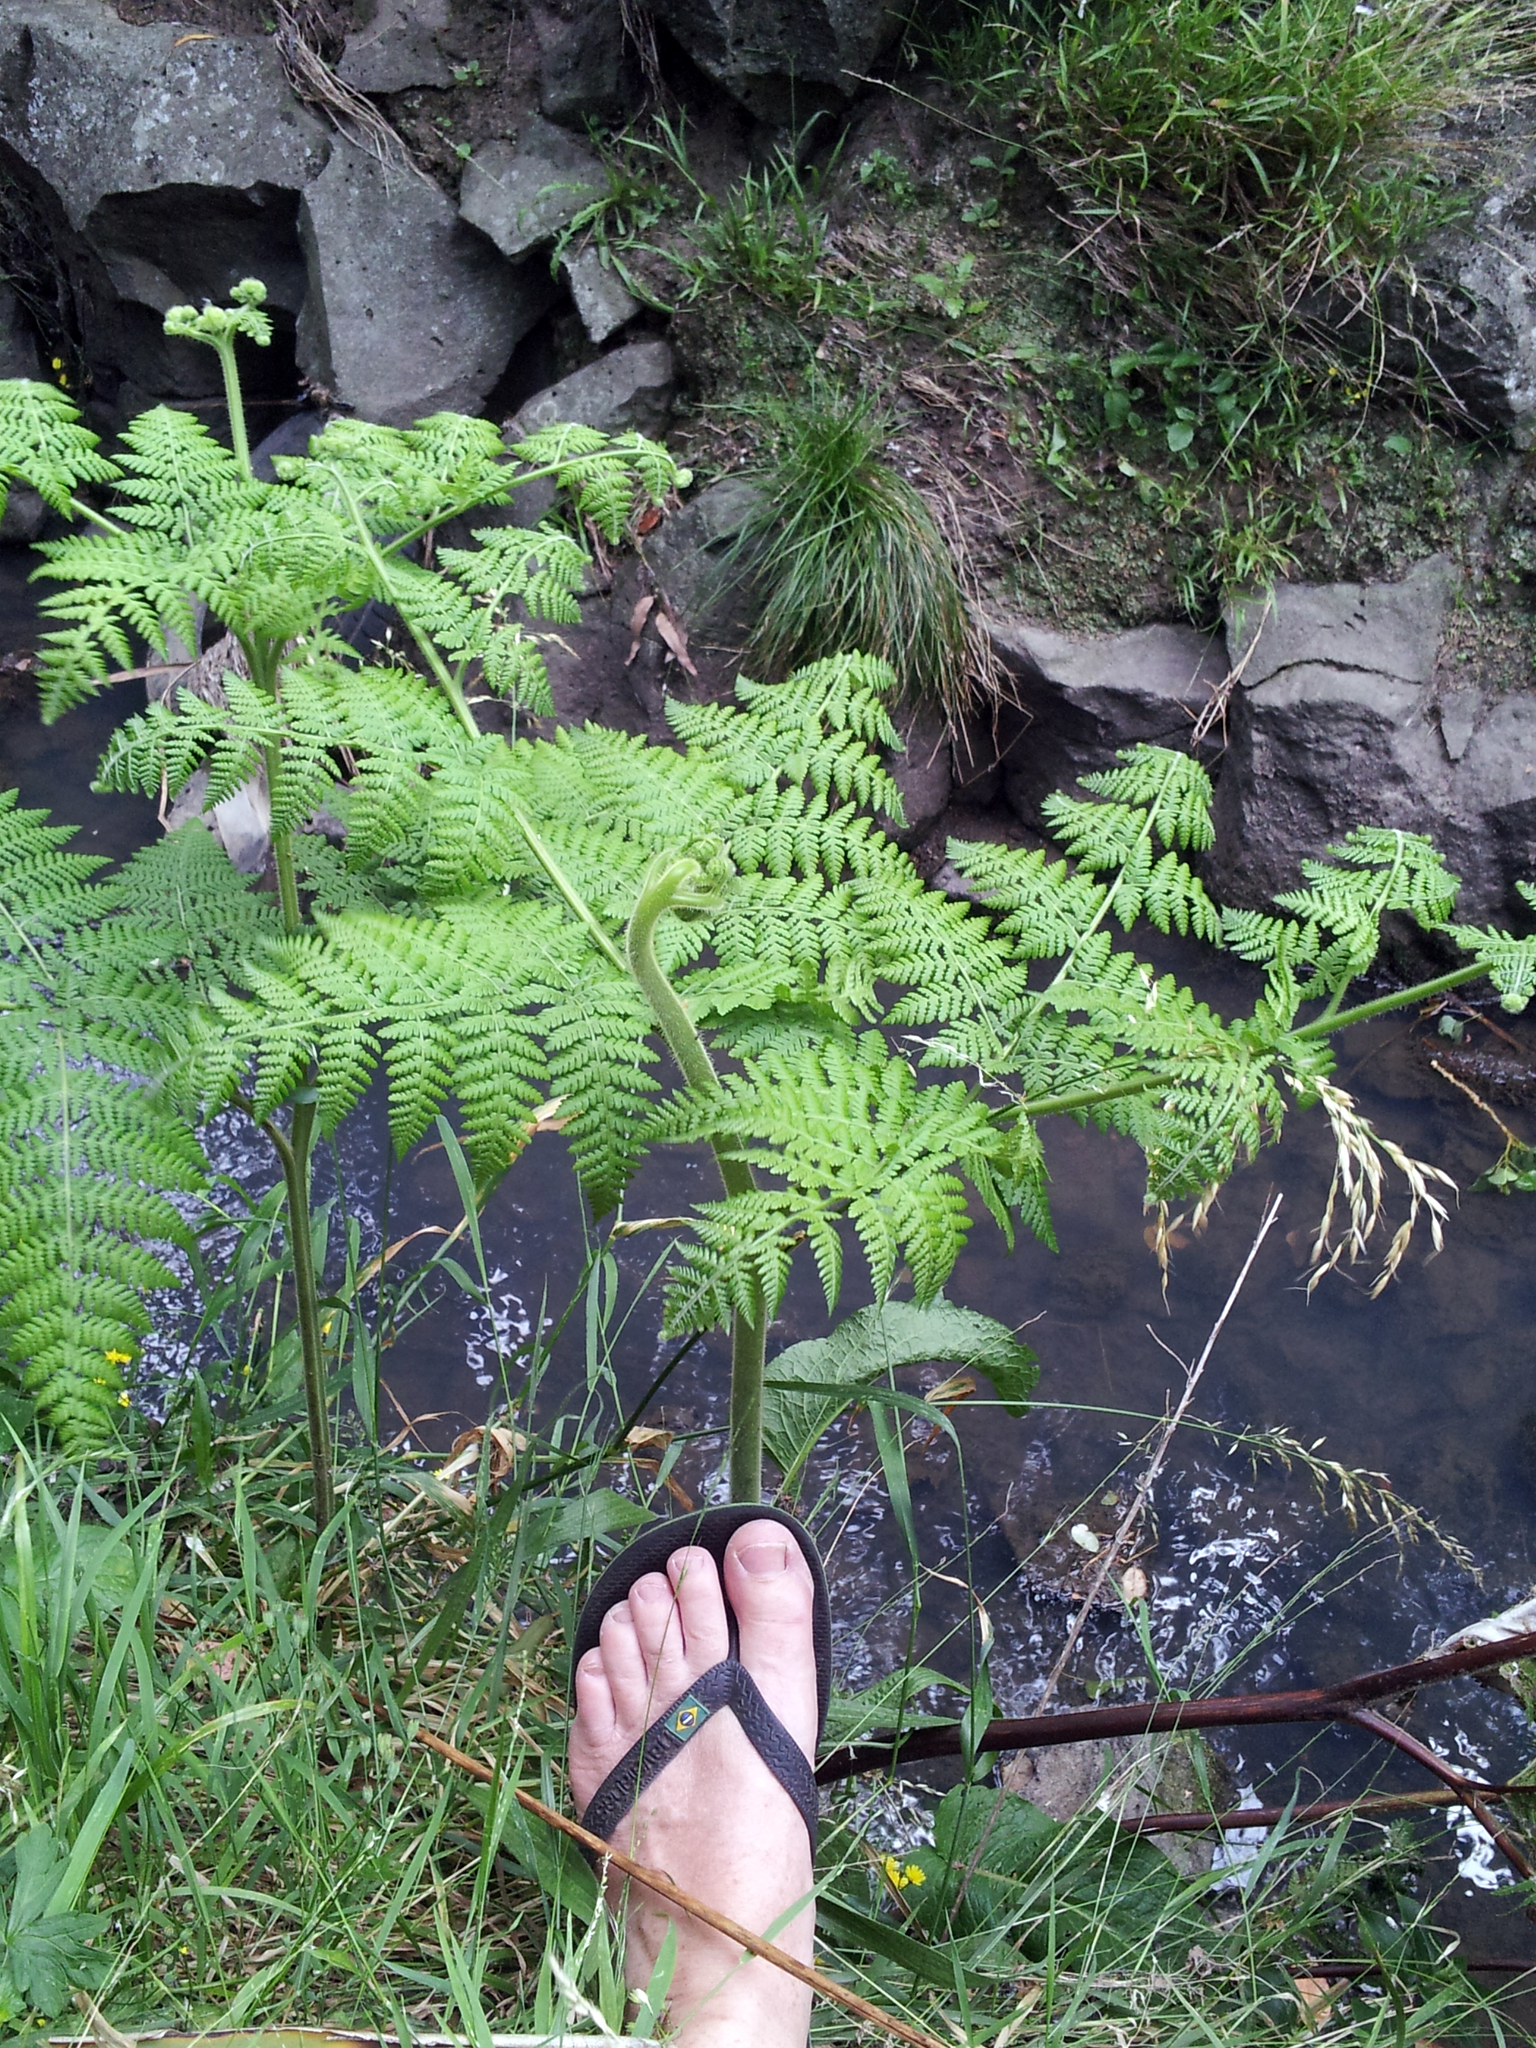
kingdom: Plantae
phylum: Tracheophyta
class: Polypodiopsida
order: Polypodiales
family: Dennstaedtiaceae
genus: Hypolepis
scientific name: Hypolepis dicksonioides
